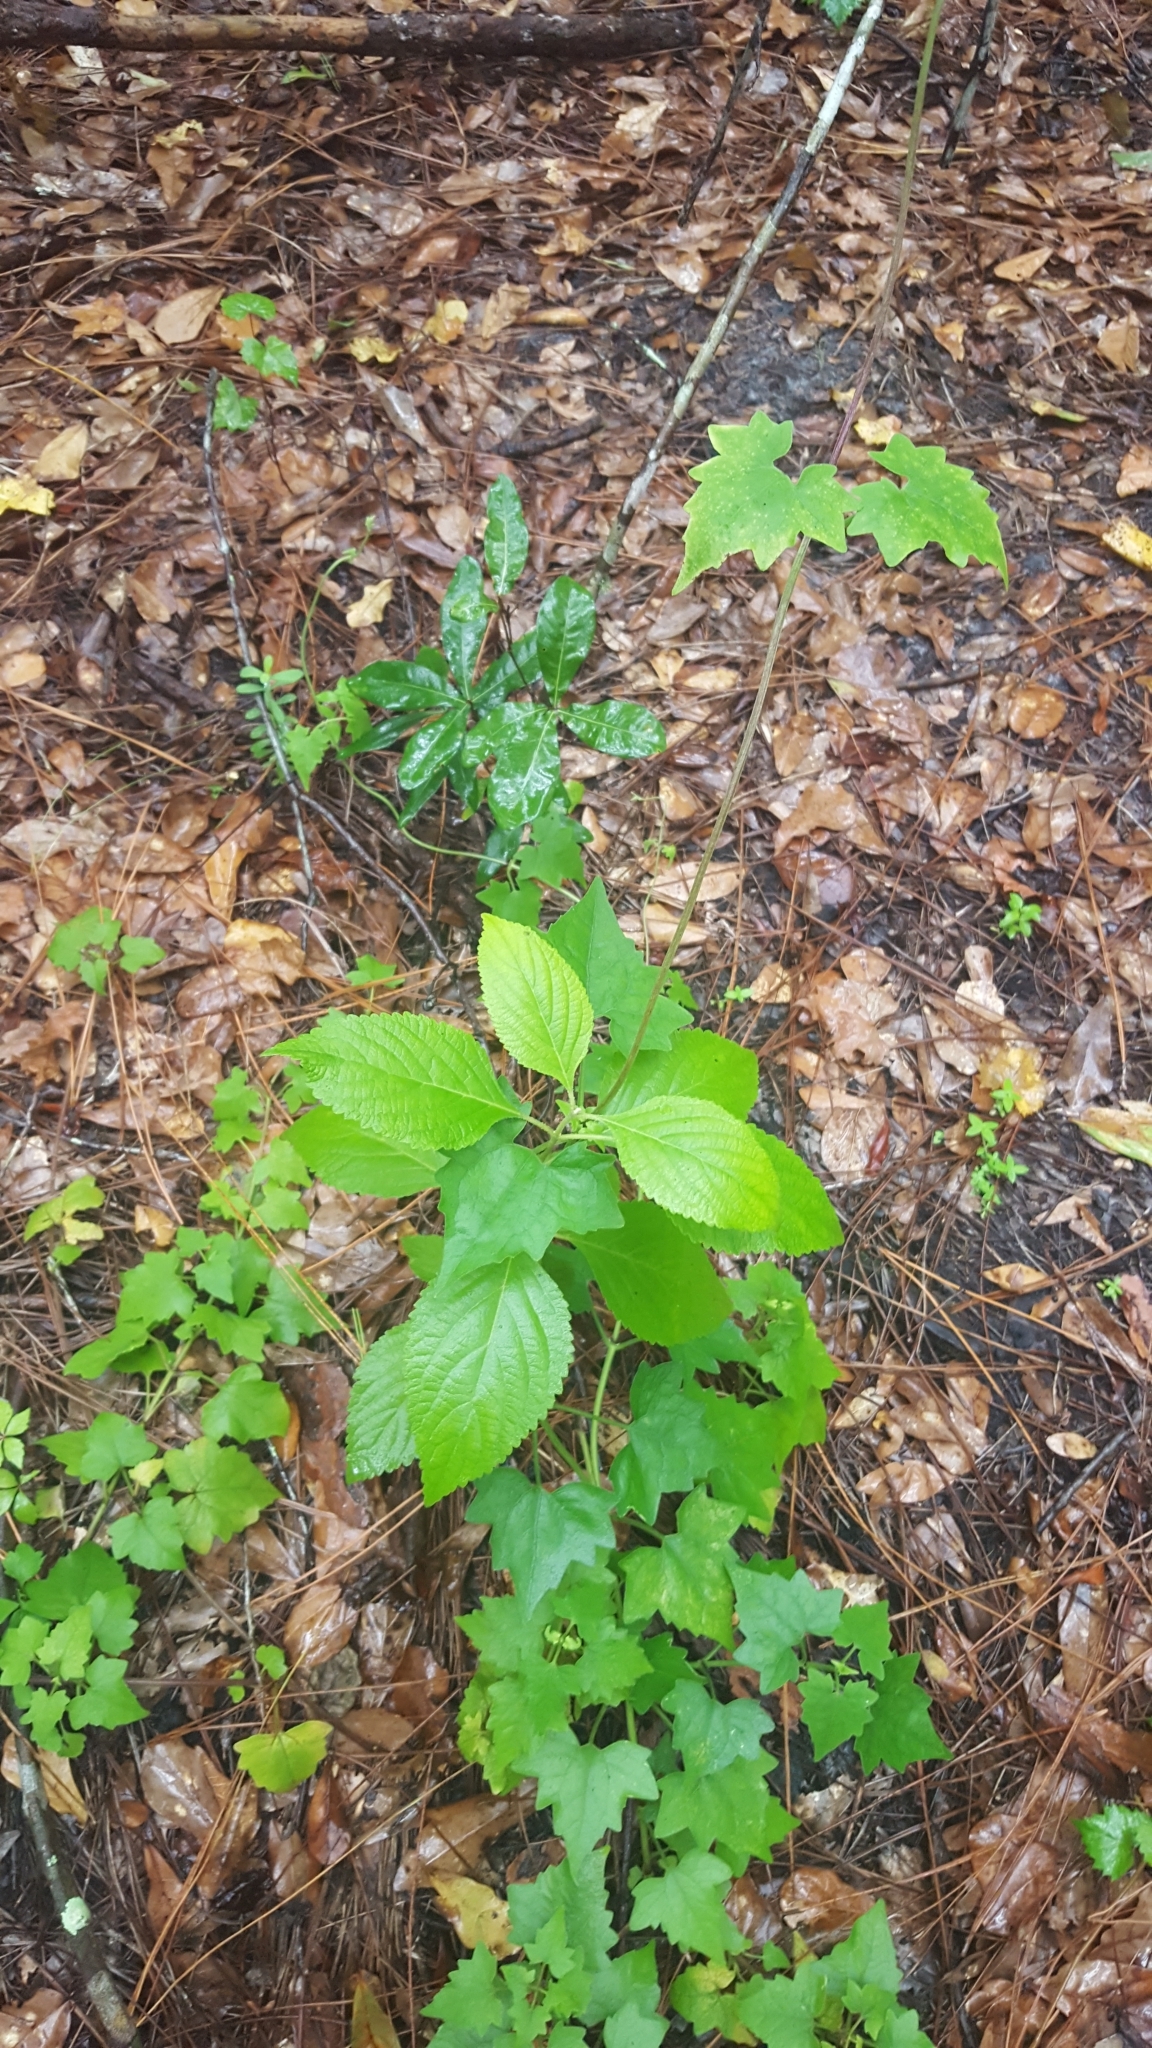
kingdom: Plantae
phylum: Tracheophyta
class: Magnoliopsida
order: Lamiales
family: Lamiaceae
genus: Callicarpa
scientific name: Callicarpa americana
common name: American beautyberry
